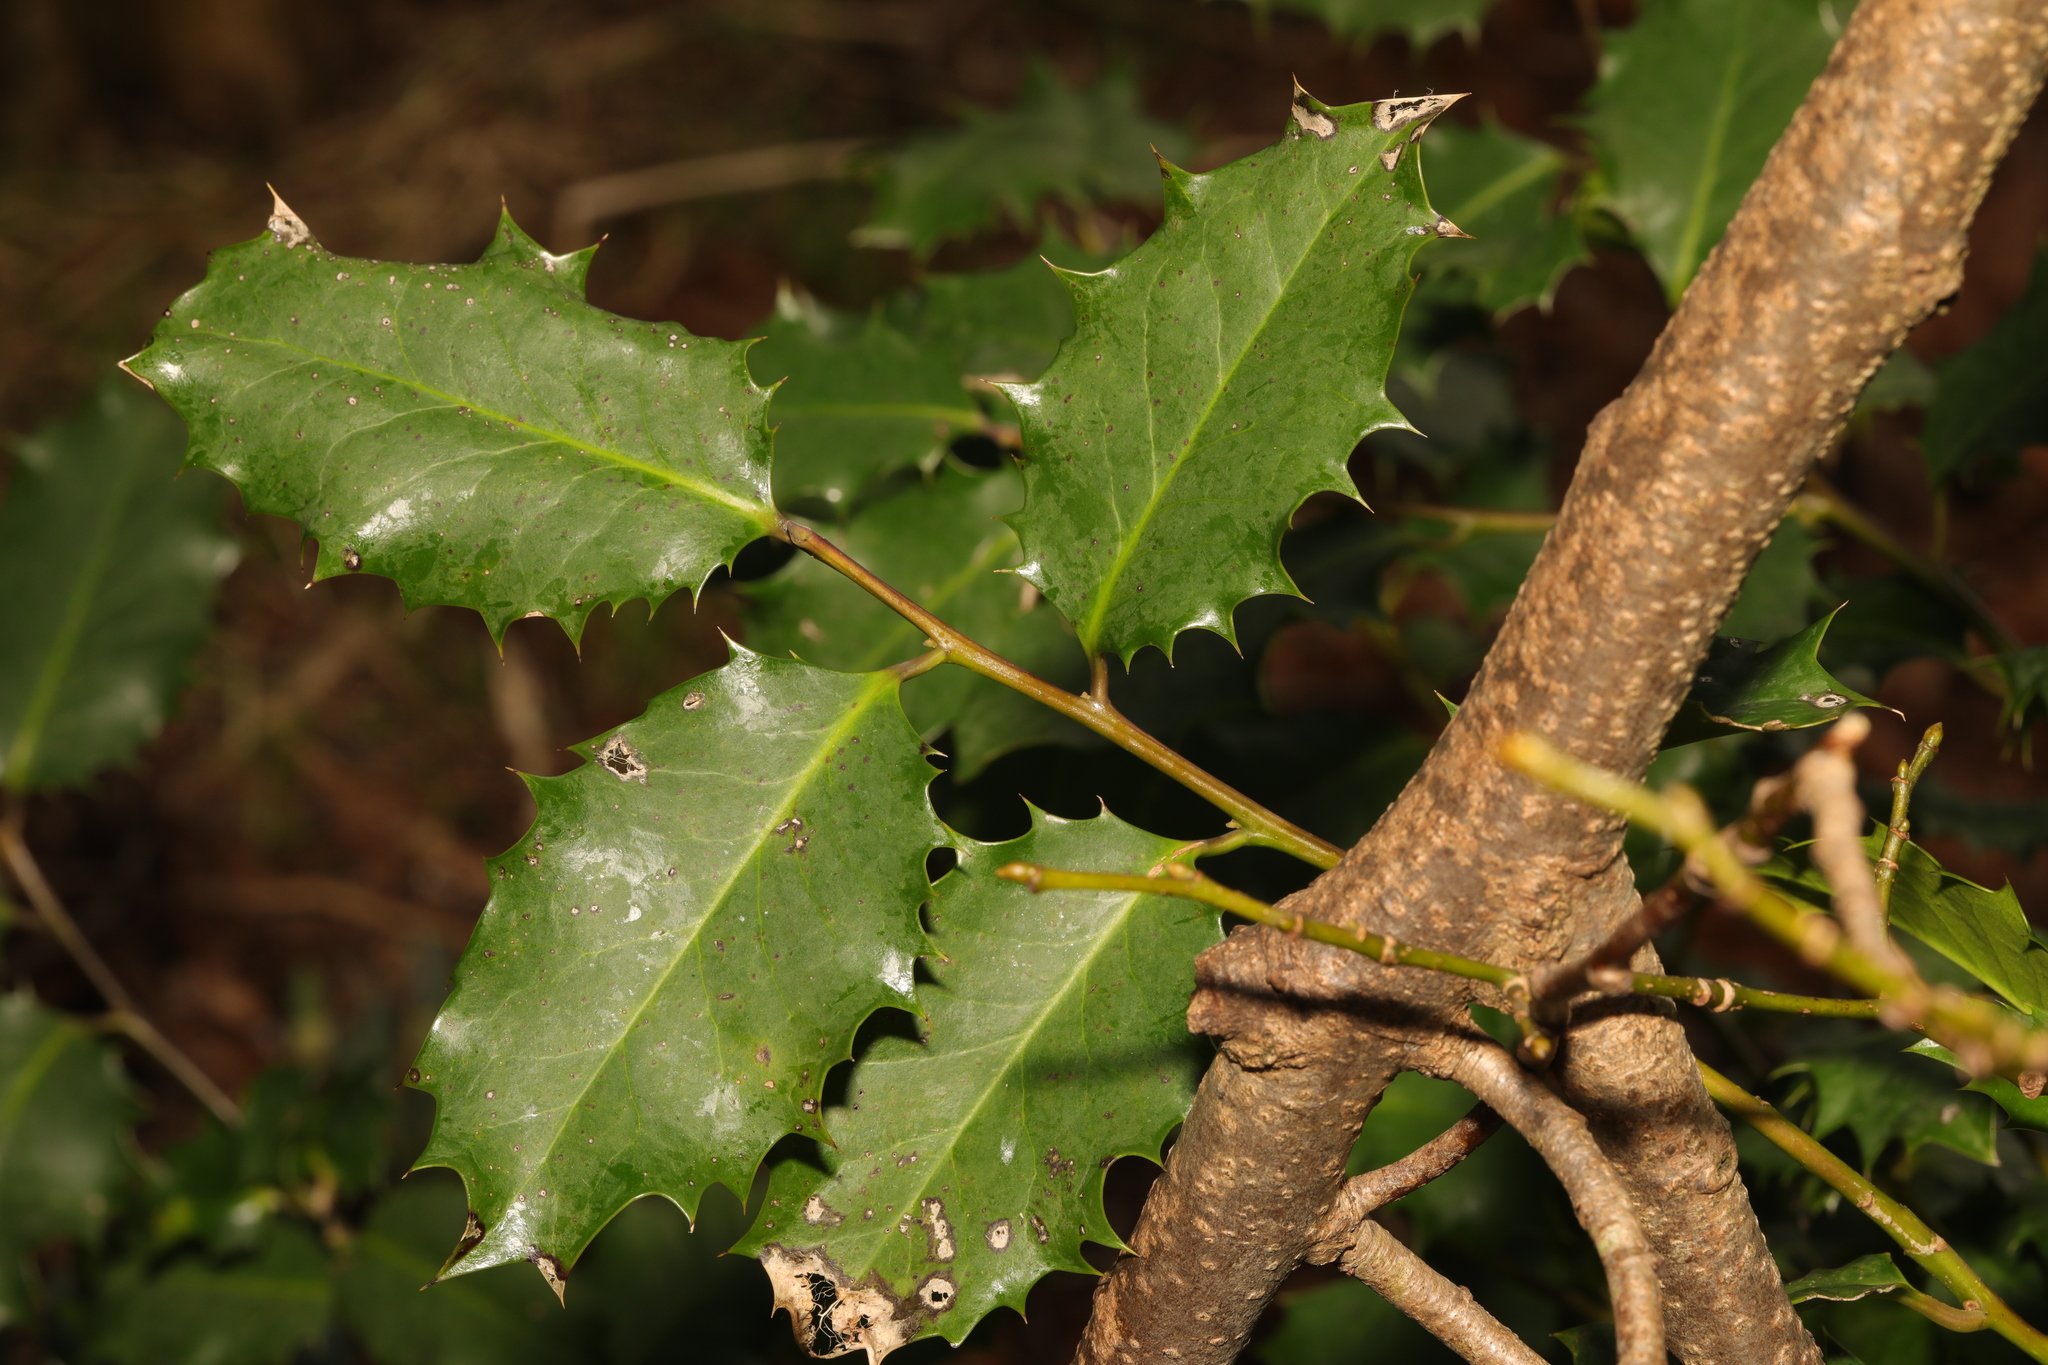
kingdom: Plantae
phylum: Tracheophyta
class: Magnoliopsida
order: Aquifoliales
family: Aquifoliaceae
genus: Ilex
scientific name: Ilex aquifolium
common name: English holly
